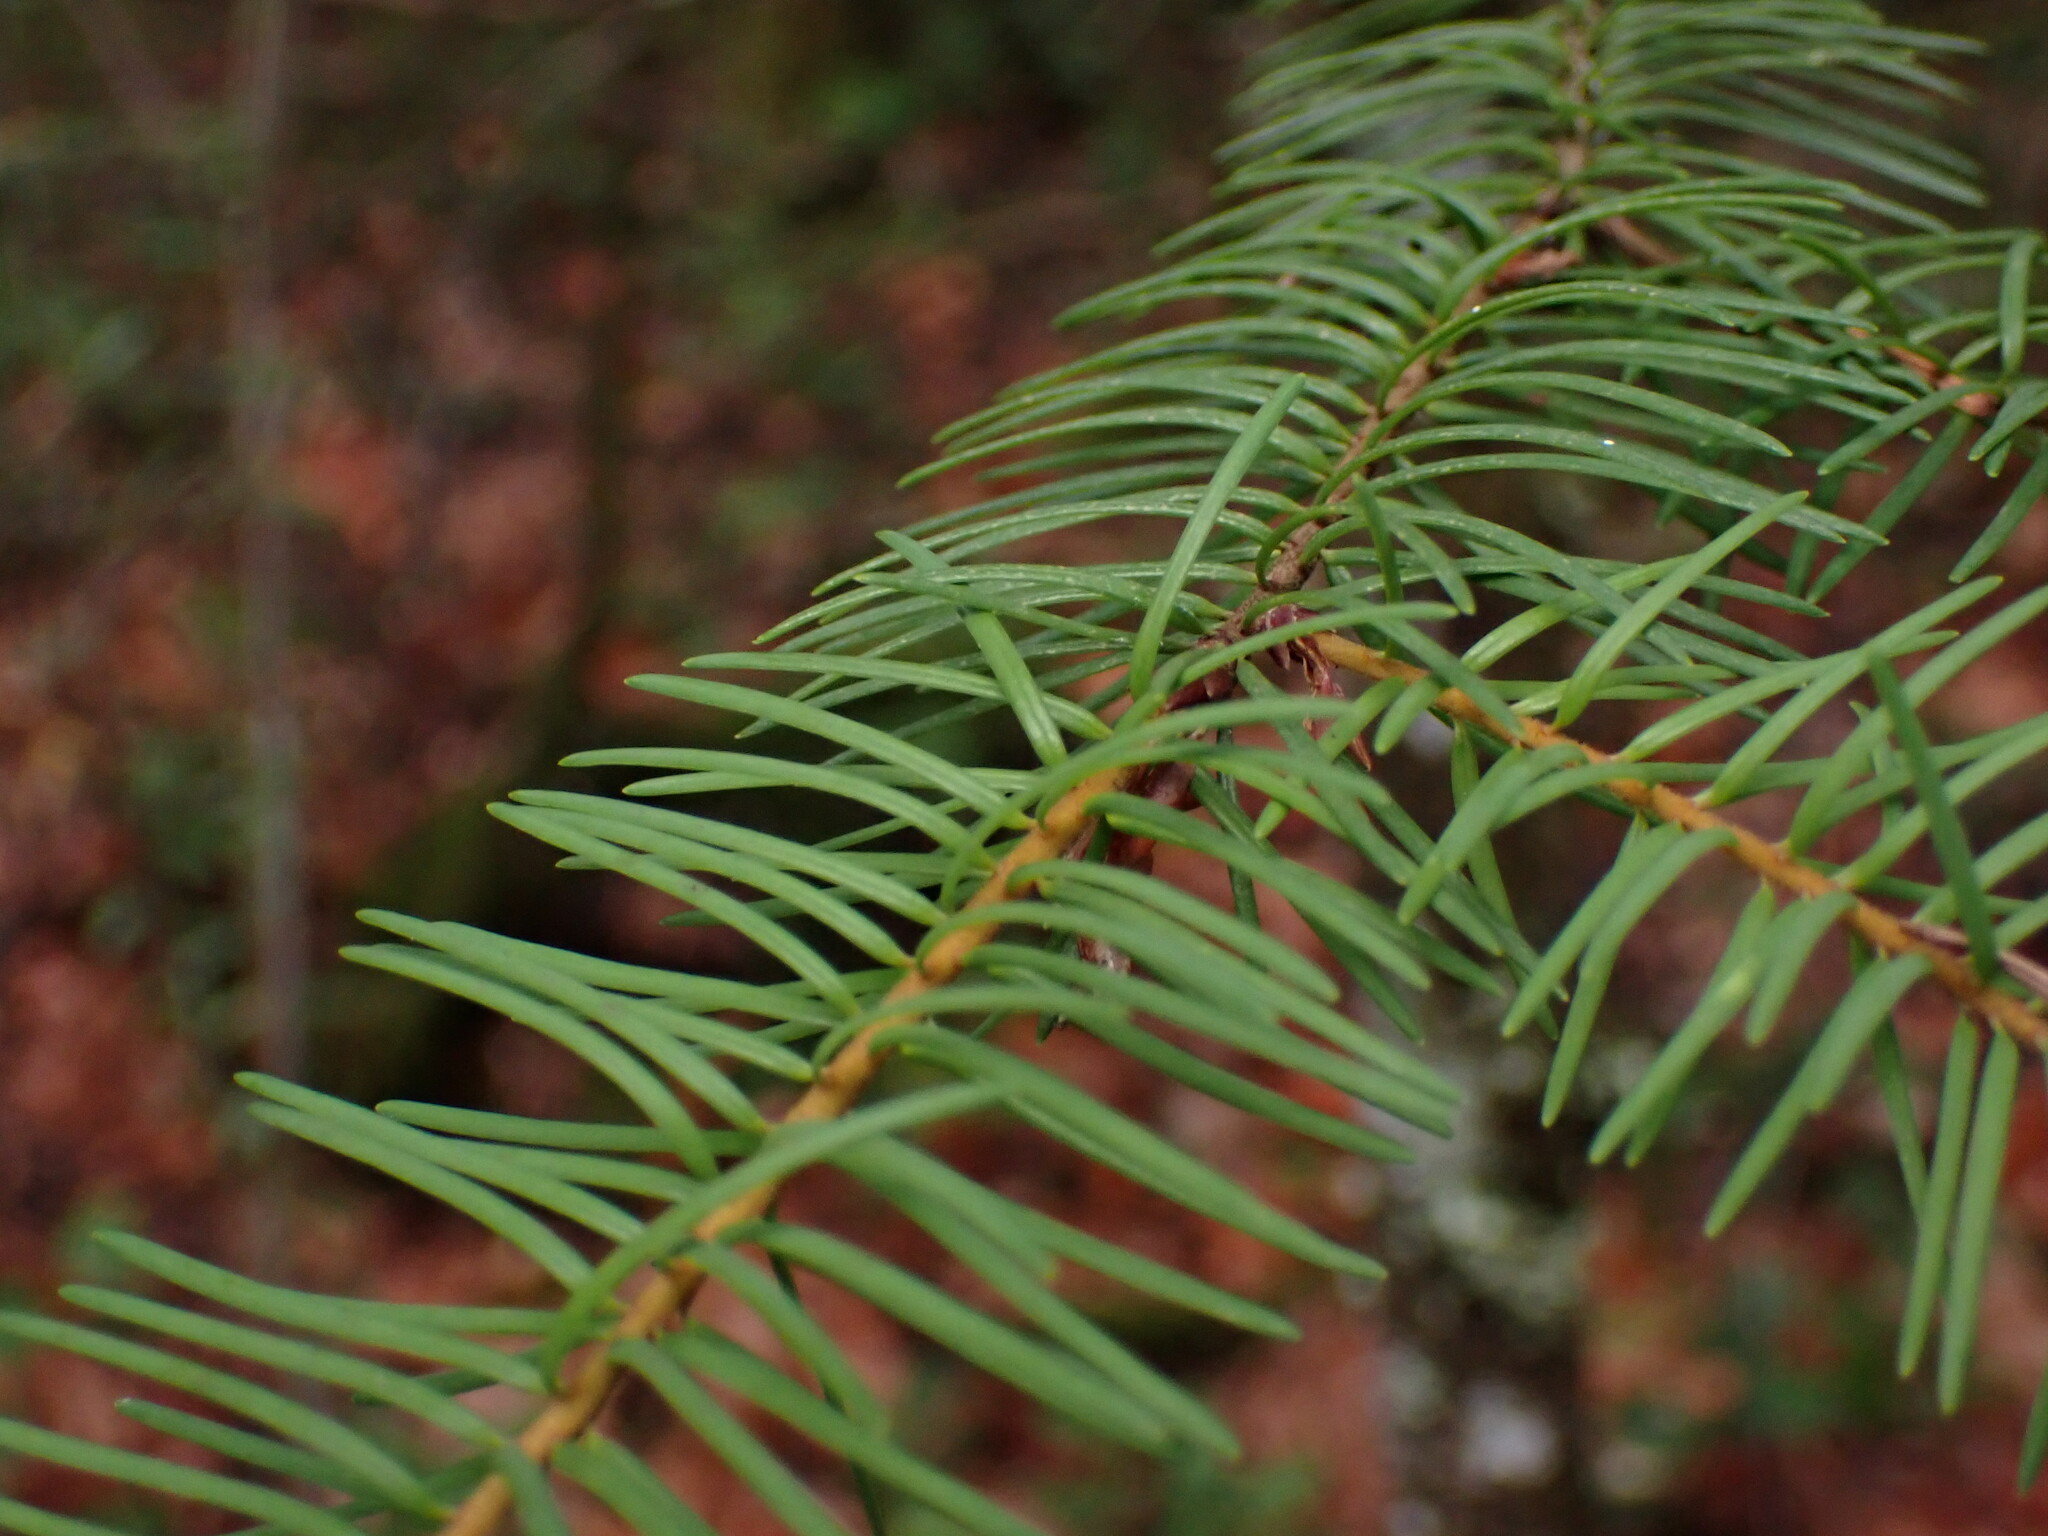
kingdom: Plantae
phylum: Tracheophyta
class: Pinopsida
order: Pinales
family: Pinaceae
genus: Pseudotsuga
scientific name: Pseudotsuga menziesii
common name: Douglas fir
